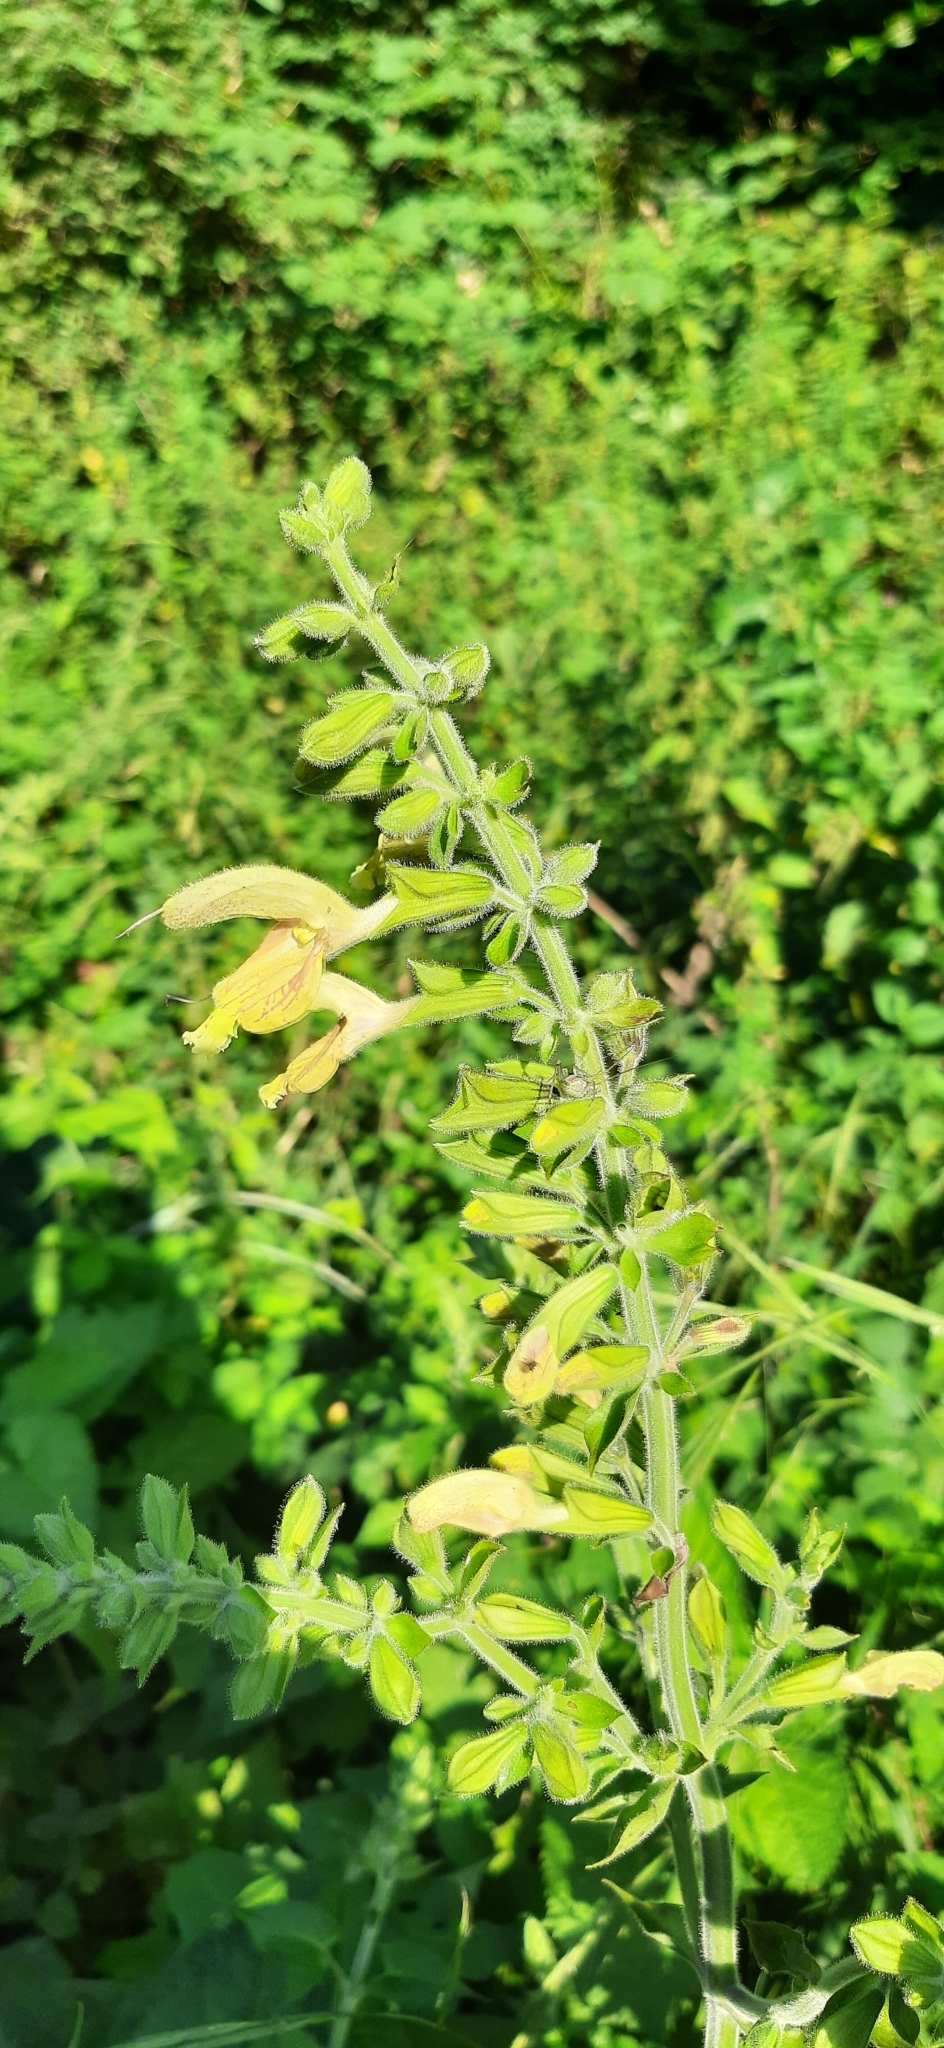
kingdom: Plantae
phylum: Tracheophyta
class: Magnoliopsida
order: Lamiales
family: Lamiaceae
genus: Salvia
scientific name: Salvia glutinosa
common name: Sticky clary
